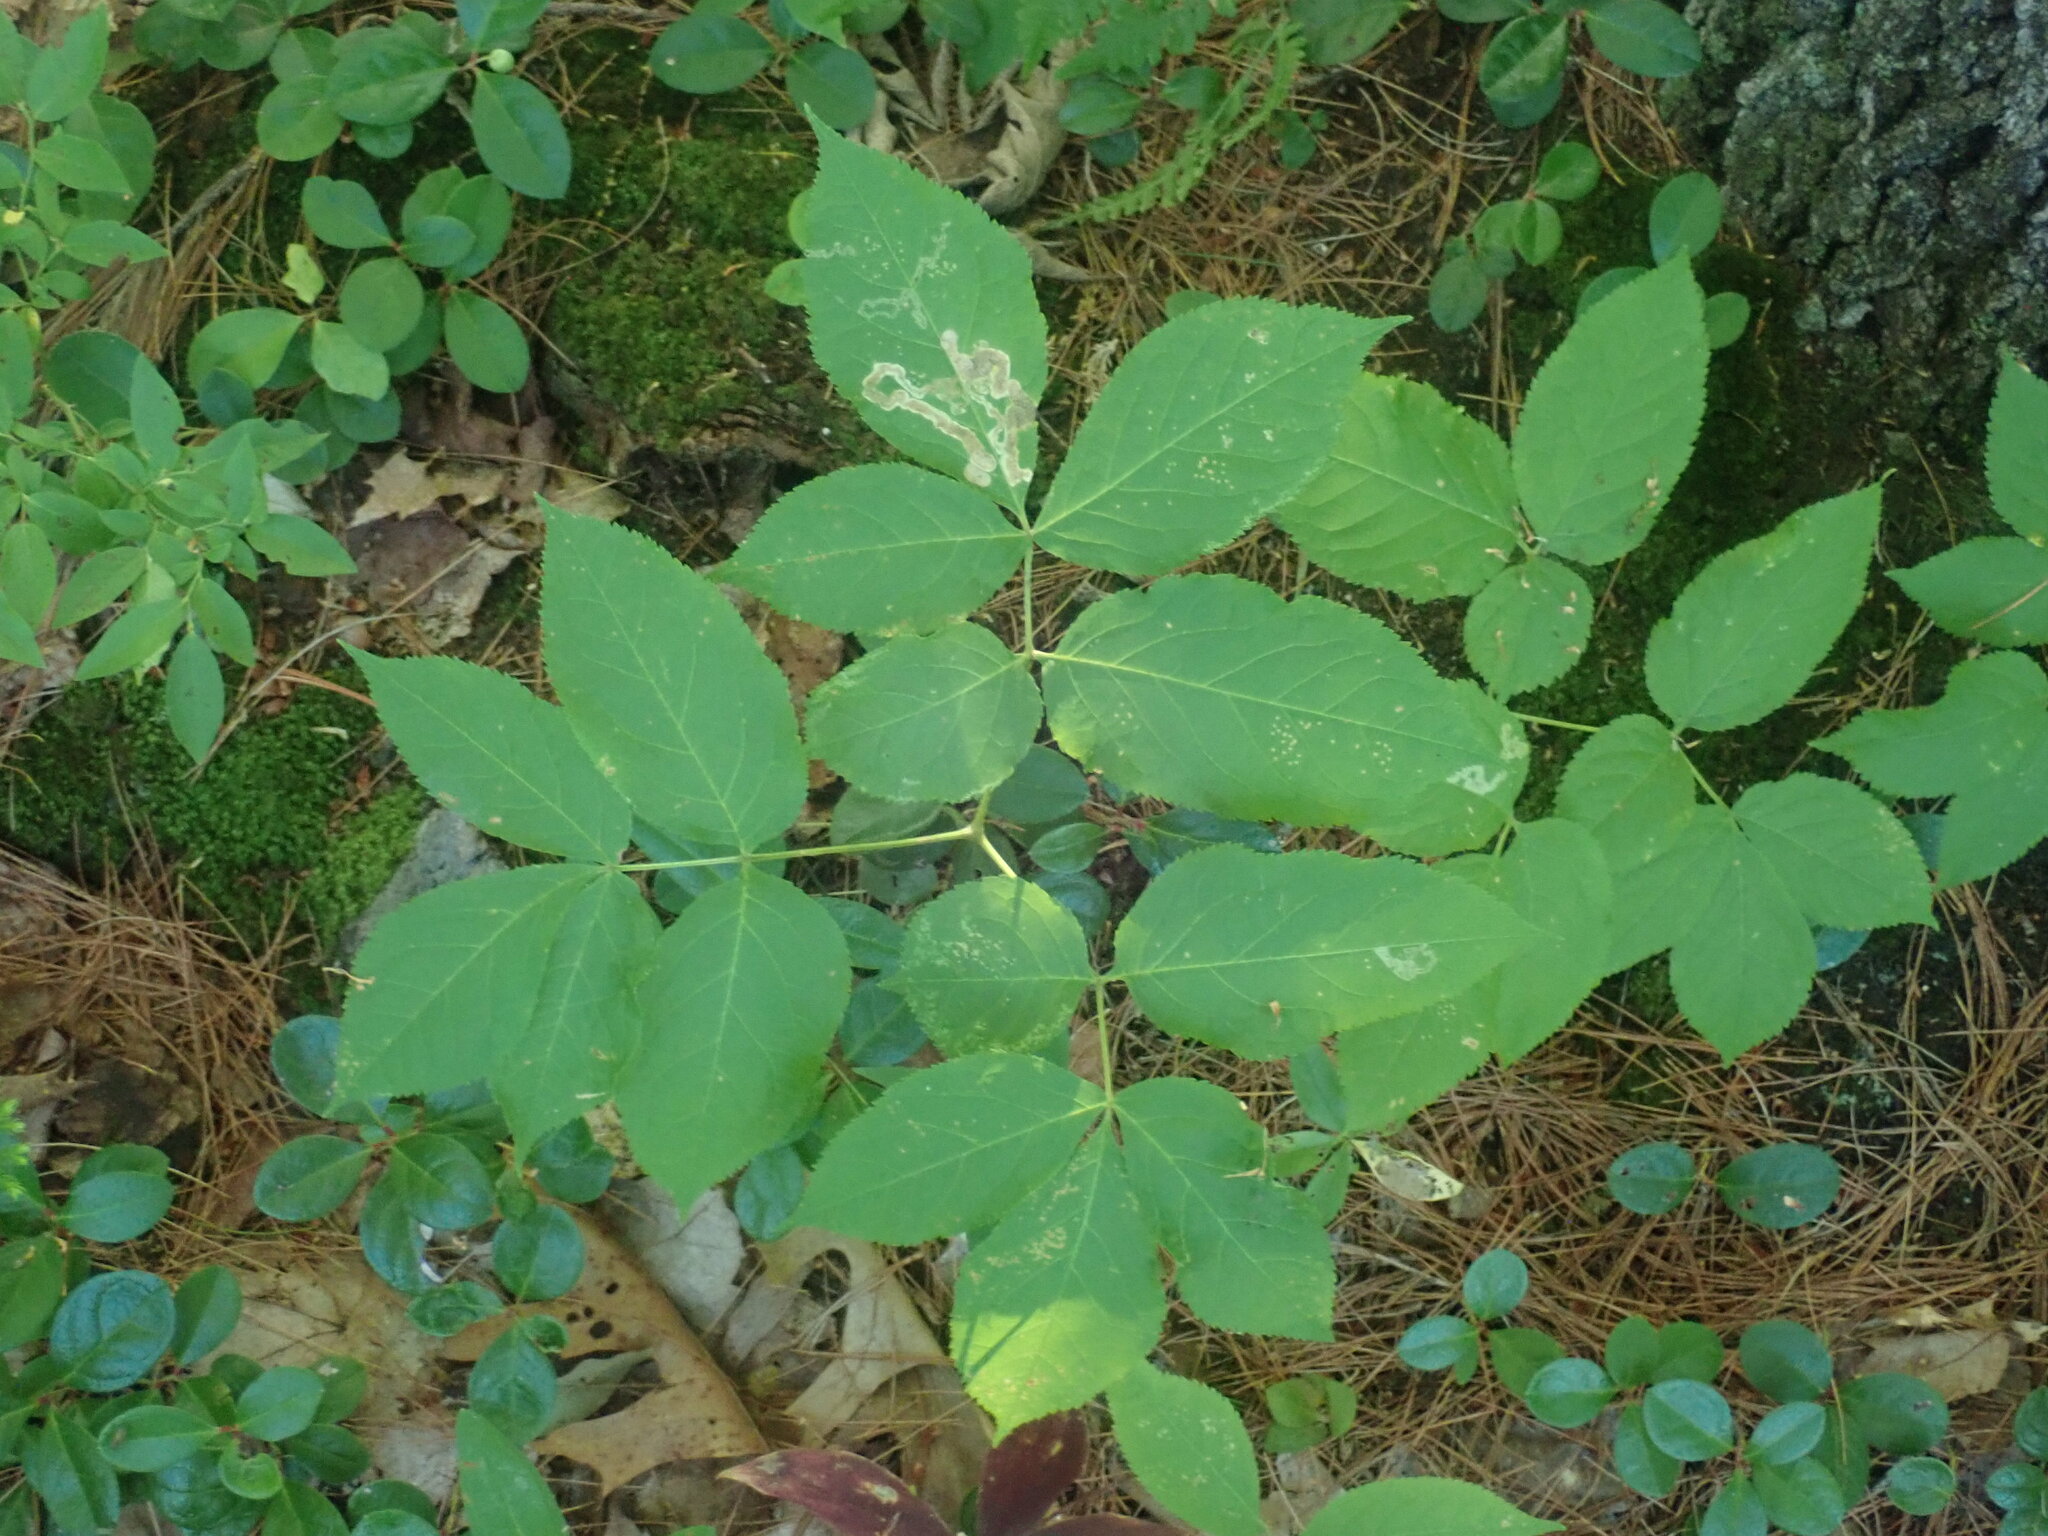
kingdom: Plantae
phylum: Tracheophyta
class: Magnoliopsida
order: Apiales
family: Araliaceae
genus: Aralia
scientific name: Aralia nudicaulis
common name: Wild sarsaparilla
